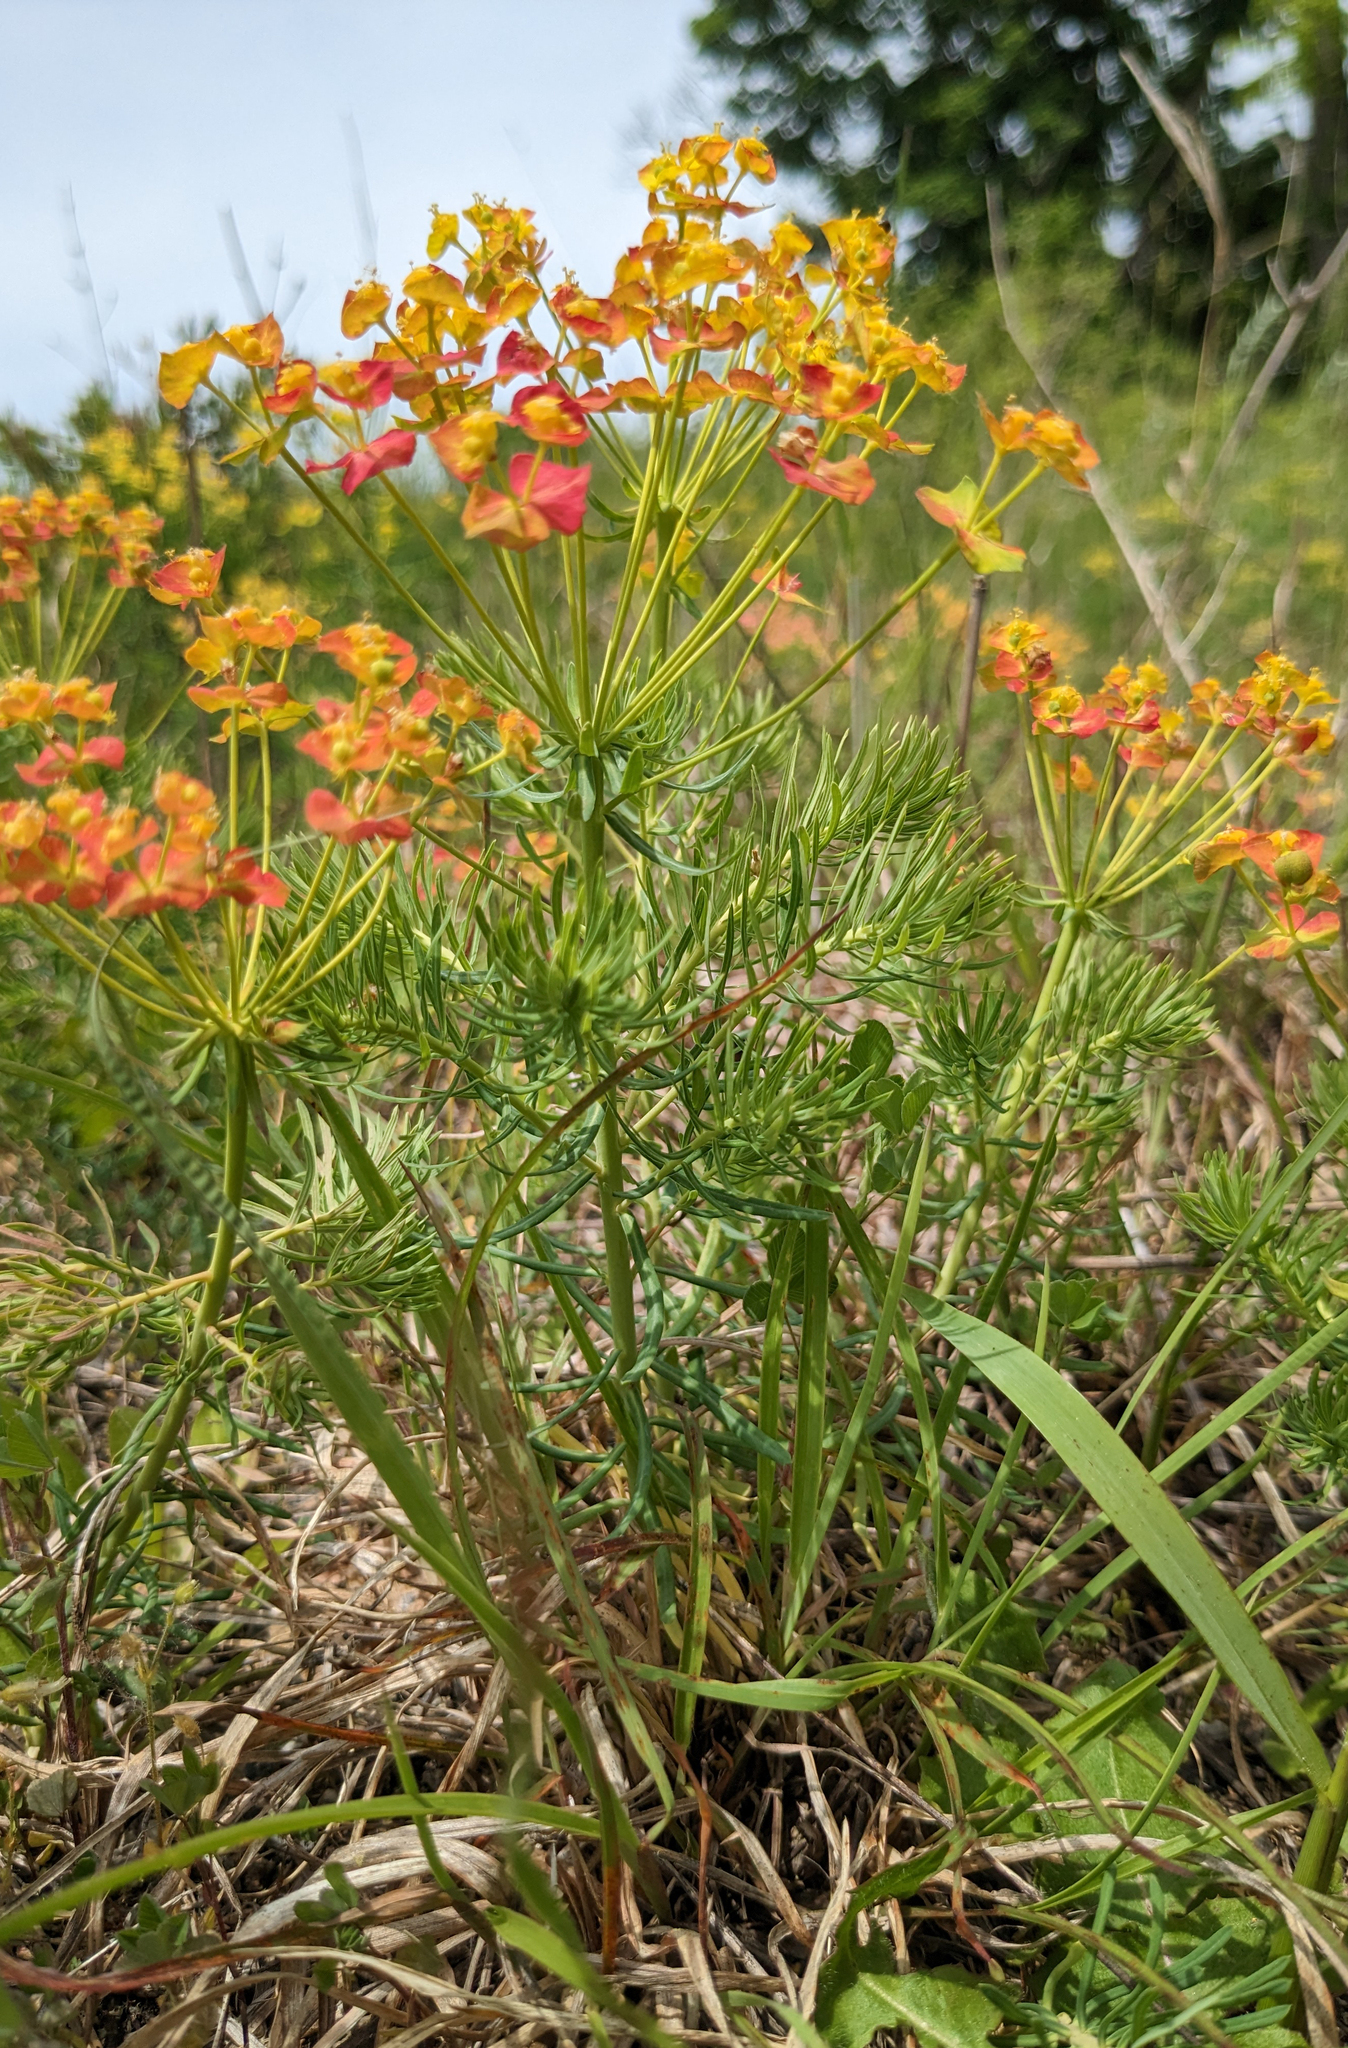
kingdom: Plantae
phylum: Tracheophyta
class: Magnoliopsida
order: Malpighiales
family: Euphorbiaceae
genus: Euphorbia
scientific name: Euphorbia cyparissias
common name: Cypress spurge
